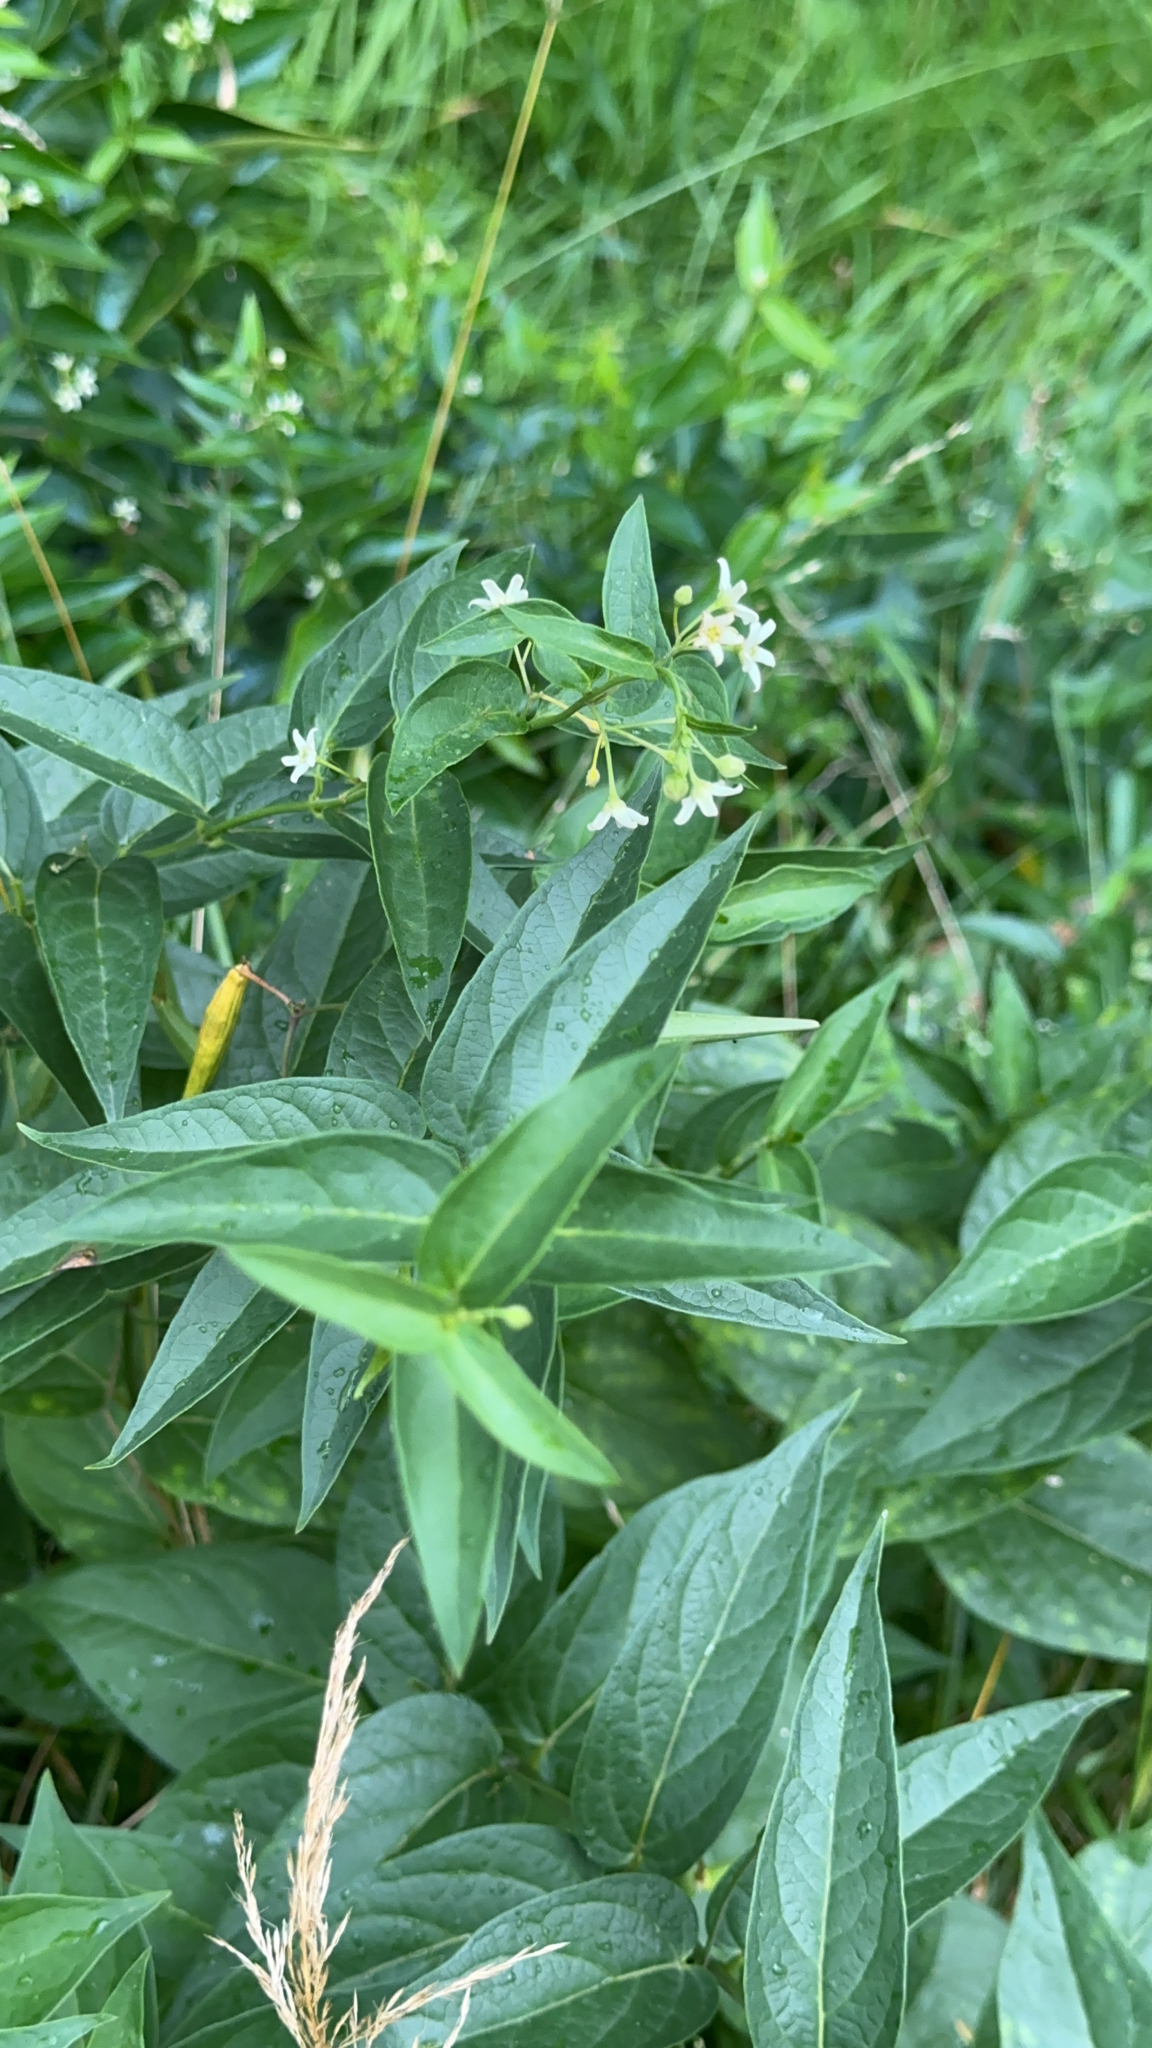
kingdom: Plantae
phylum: Tracheophyta
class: Magnoliopsida
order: Gentianales
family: Apocynaceae
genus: Vincetoxicum
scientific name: Vincetoxicum hirundinaria
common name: White swallowwort
